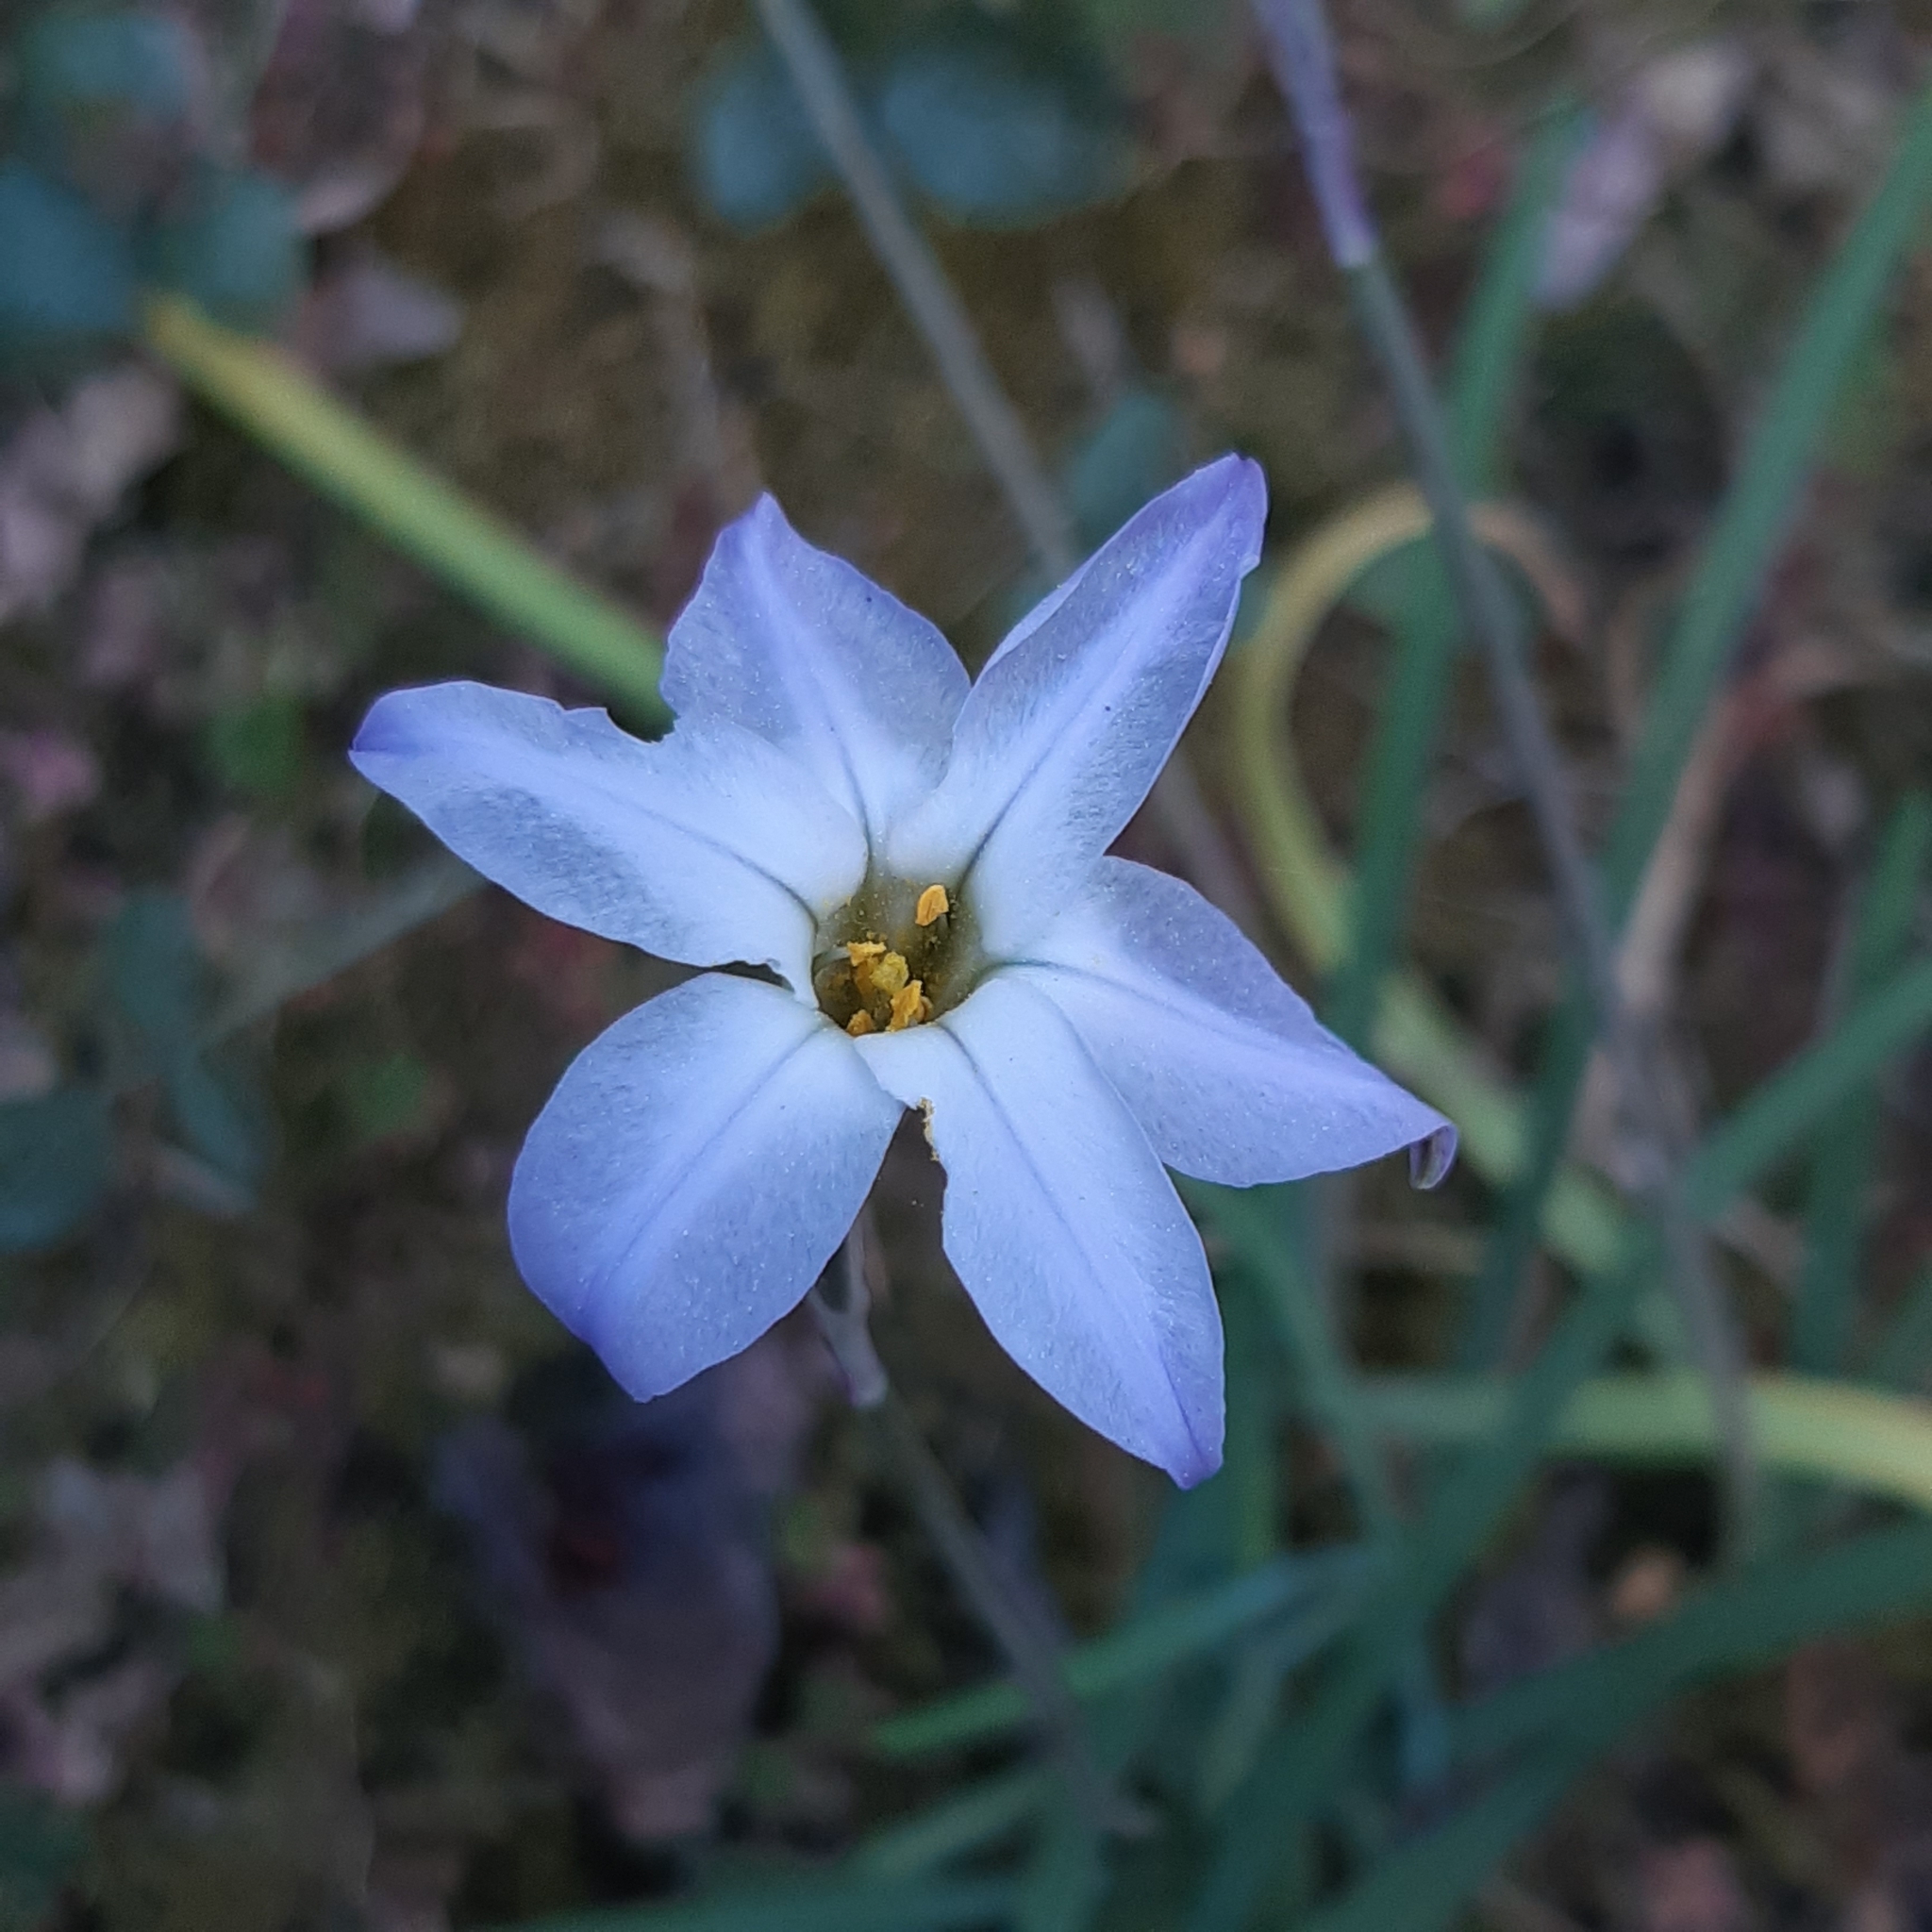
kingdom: Plantae
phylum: Tracheophyta
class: Liliopsida
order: Asparagales
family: Amaryllidaceae
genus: Ipheion
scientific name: Ipheion uniflorum
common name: Spring starflower
